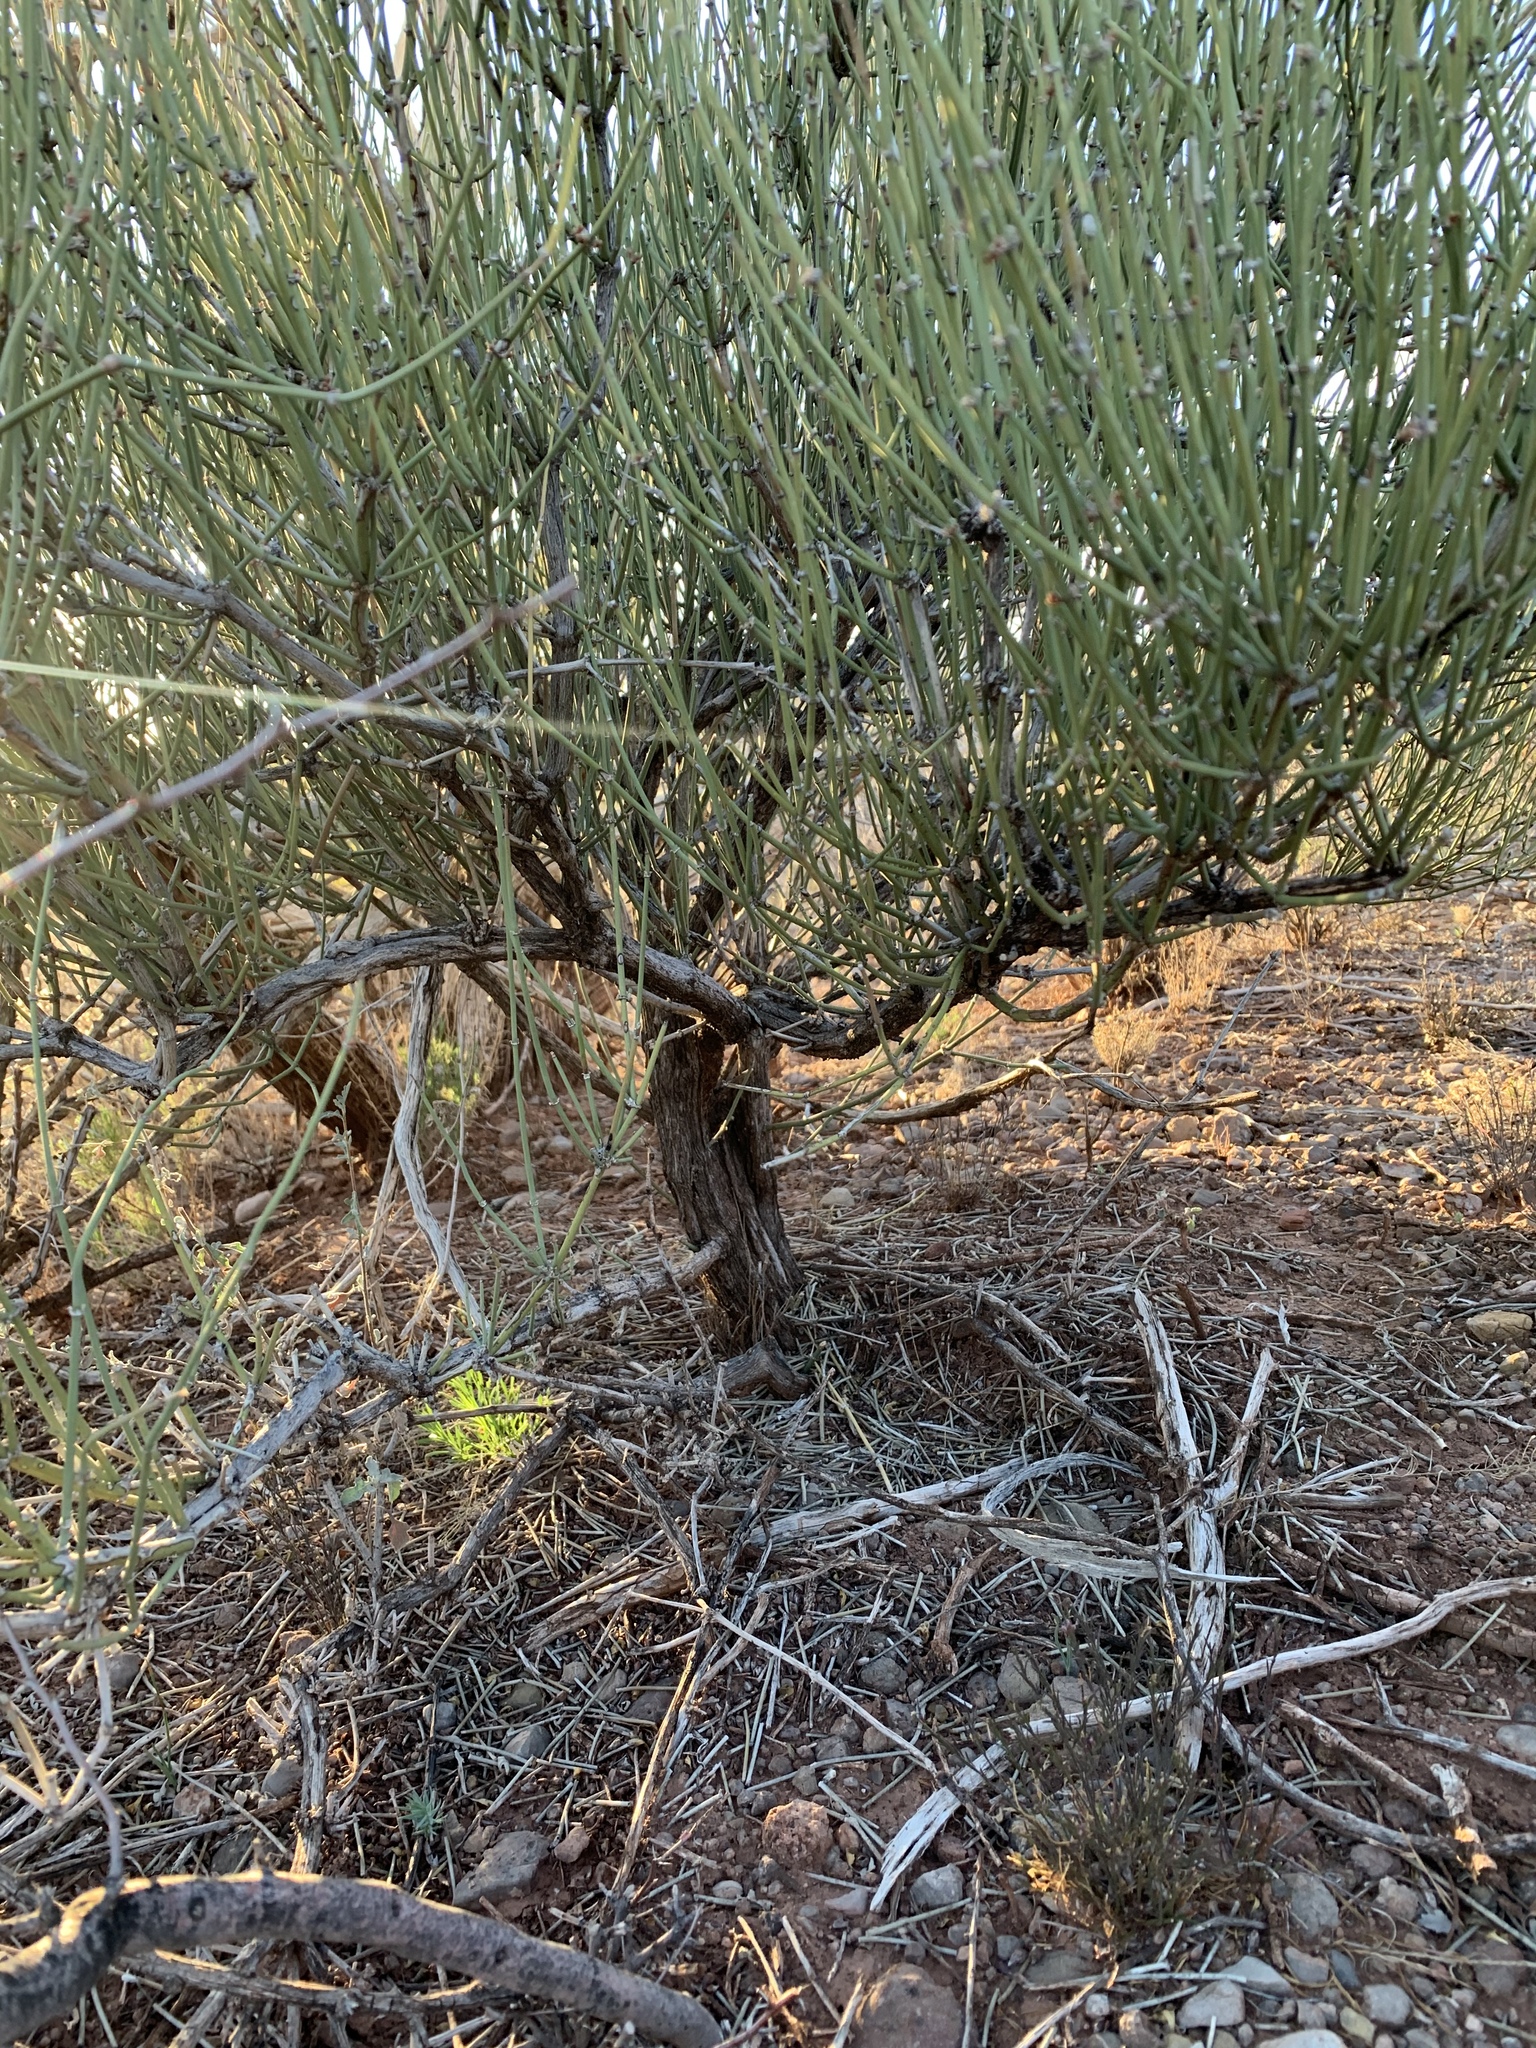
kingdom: Plantae
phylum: Tracheophyta
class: Gnetopsida
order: Ephedrales
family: Ephedraceae
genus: Ephedra
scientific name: Ephedra viridis
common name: Green ephedra
